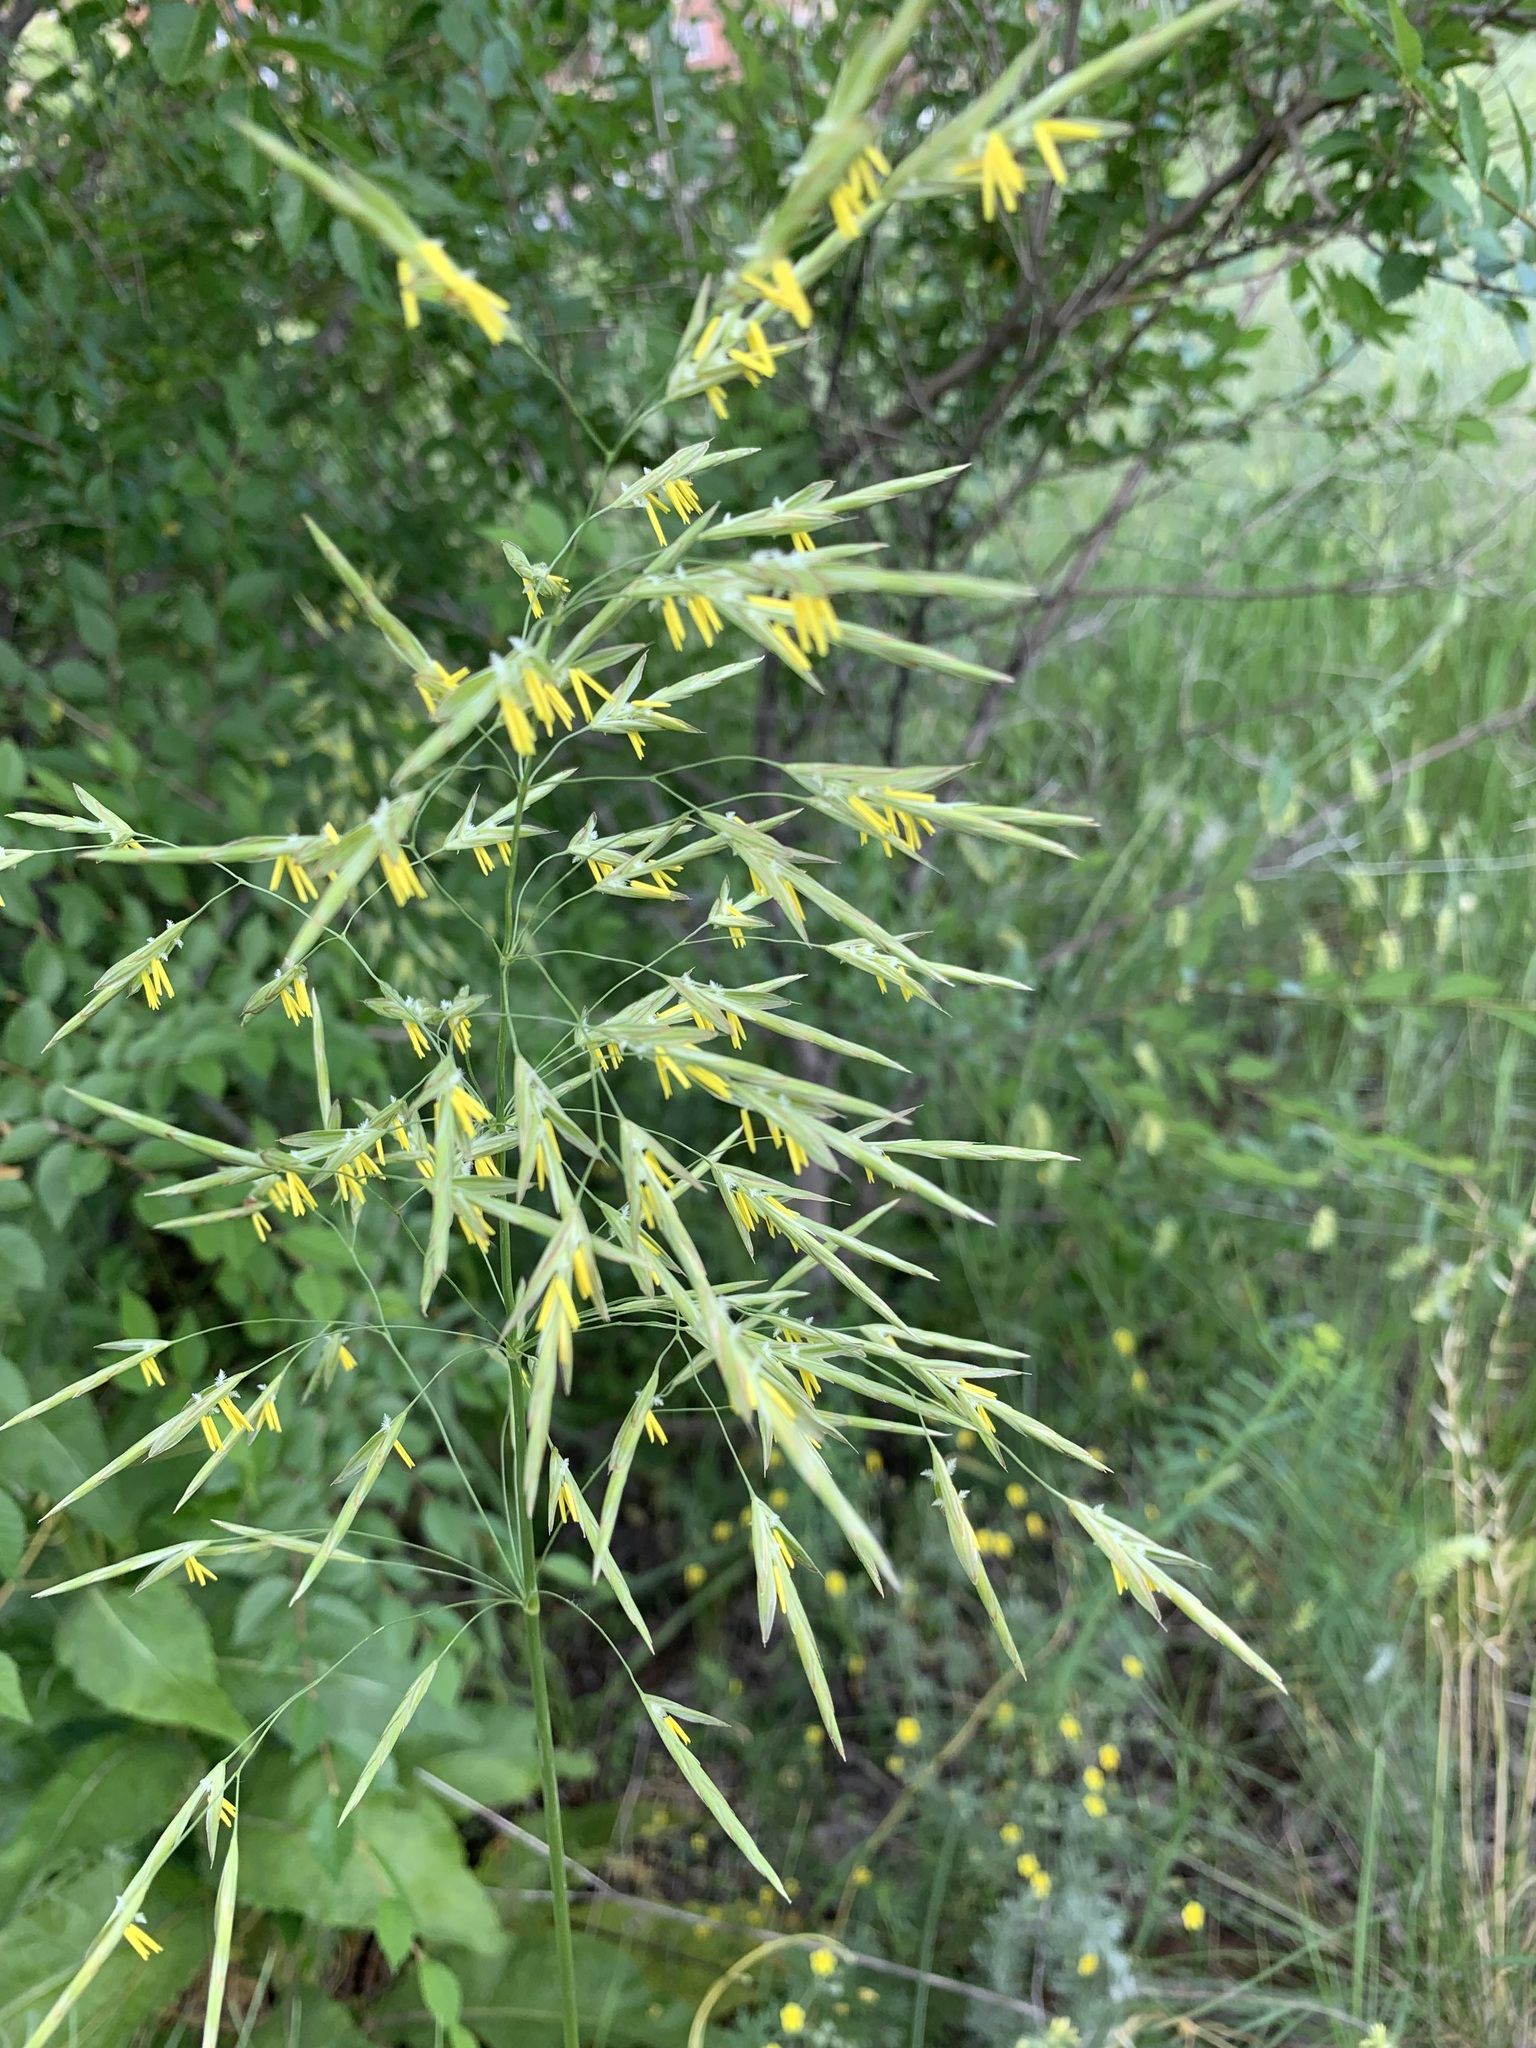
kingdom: Plantae
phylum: Tracheophyta
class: Liliopsida
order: Poales
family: Poaceae
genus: Bromus
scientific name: Bromus inermis
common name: Smooth brome
